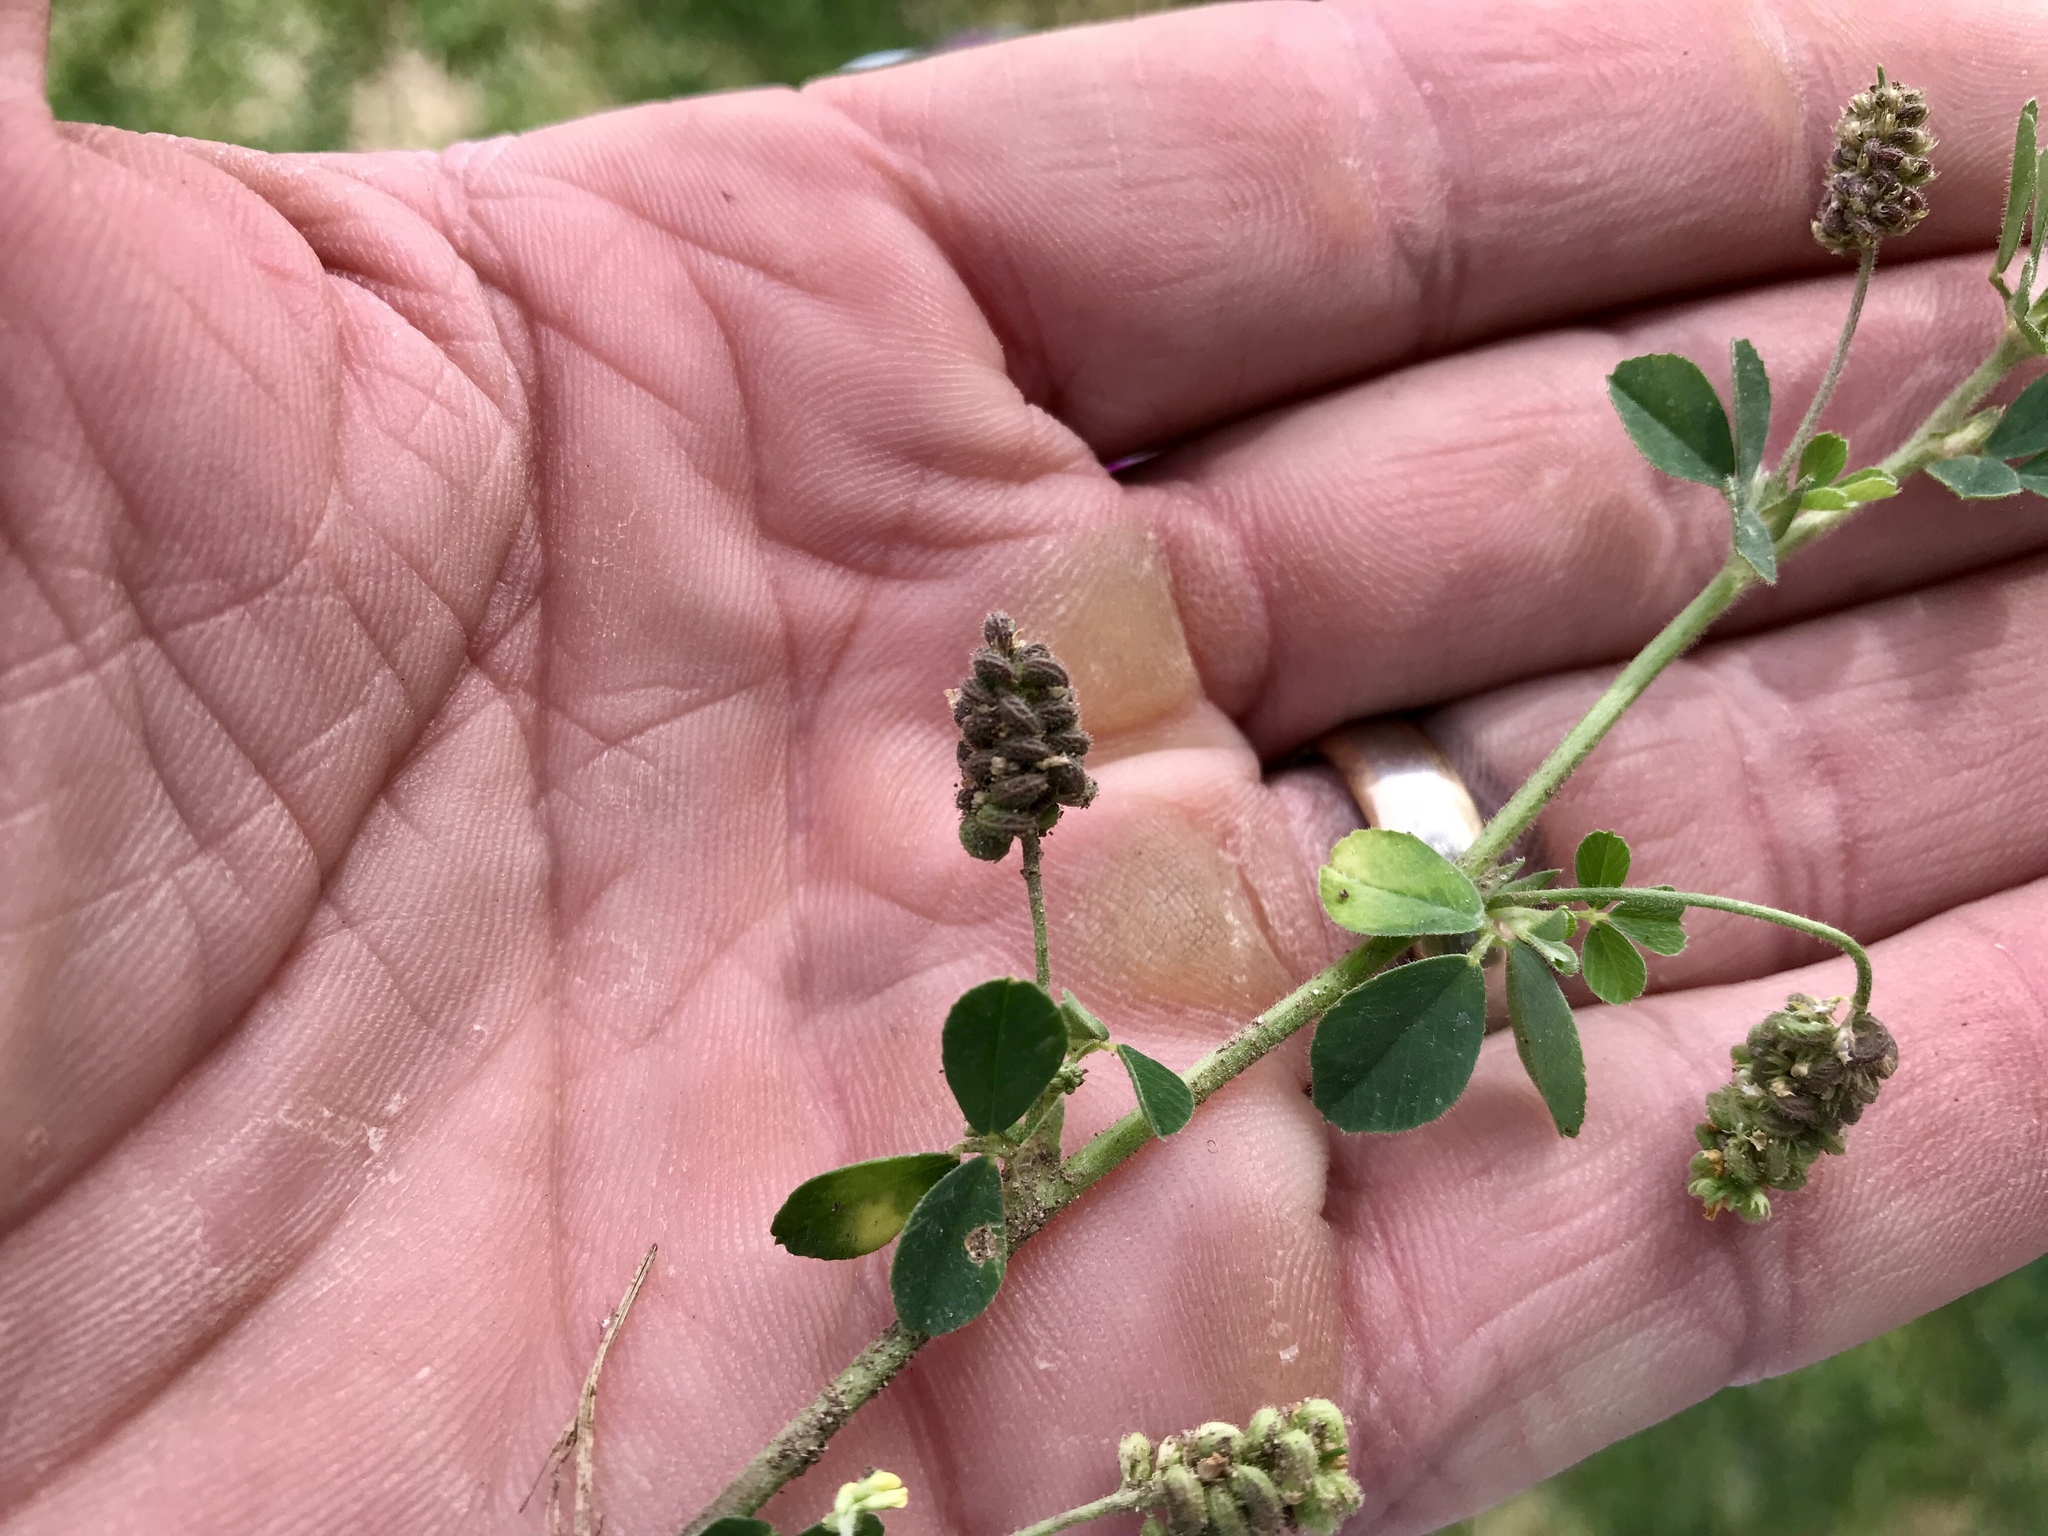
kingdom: Plantae
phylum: Tracheophyta
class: Magnoliopsida
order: Fabales
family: Fabaceae
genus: Medicago
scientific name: Medicago lupulina
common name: Black medick
